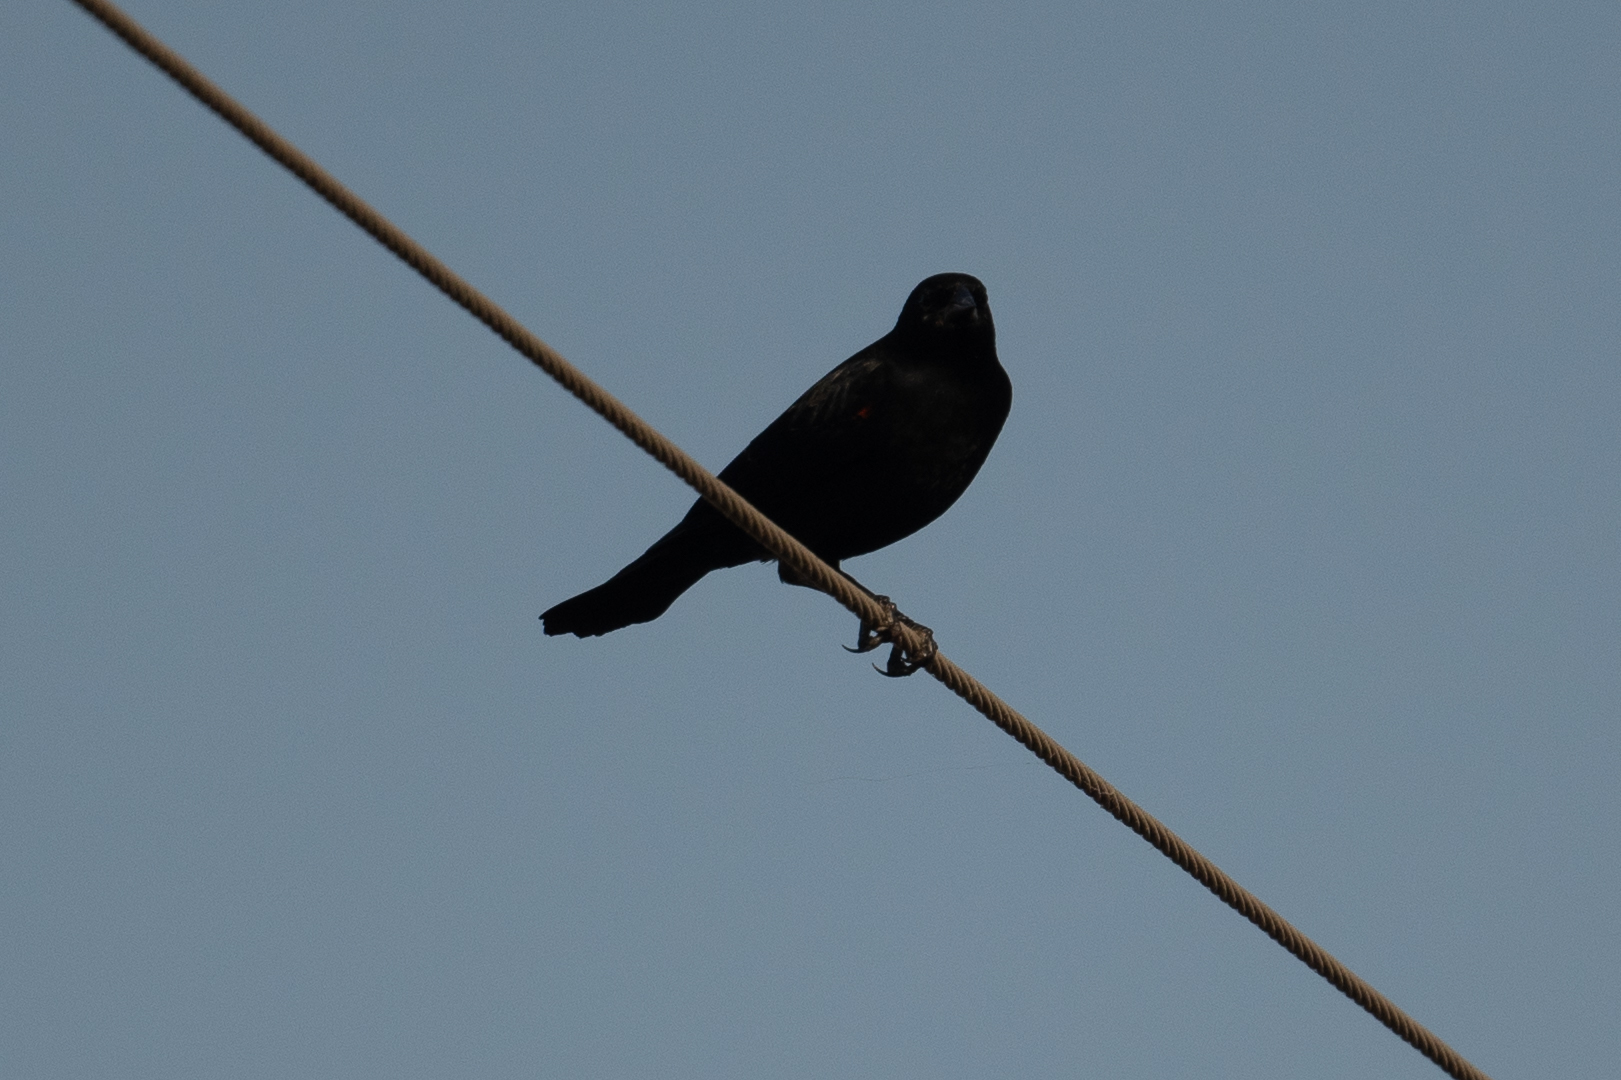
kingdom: Animalia
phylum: Chordata
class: Aves
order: Passeriformes
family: Icteridae
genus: Agelaius
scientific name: Agelaius phoeniceus
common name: Red-winged blackbird
